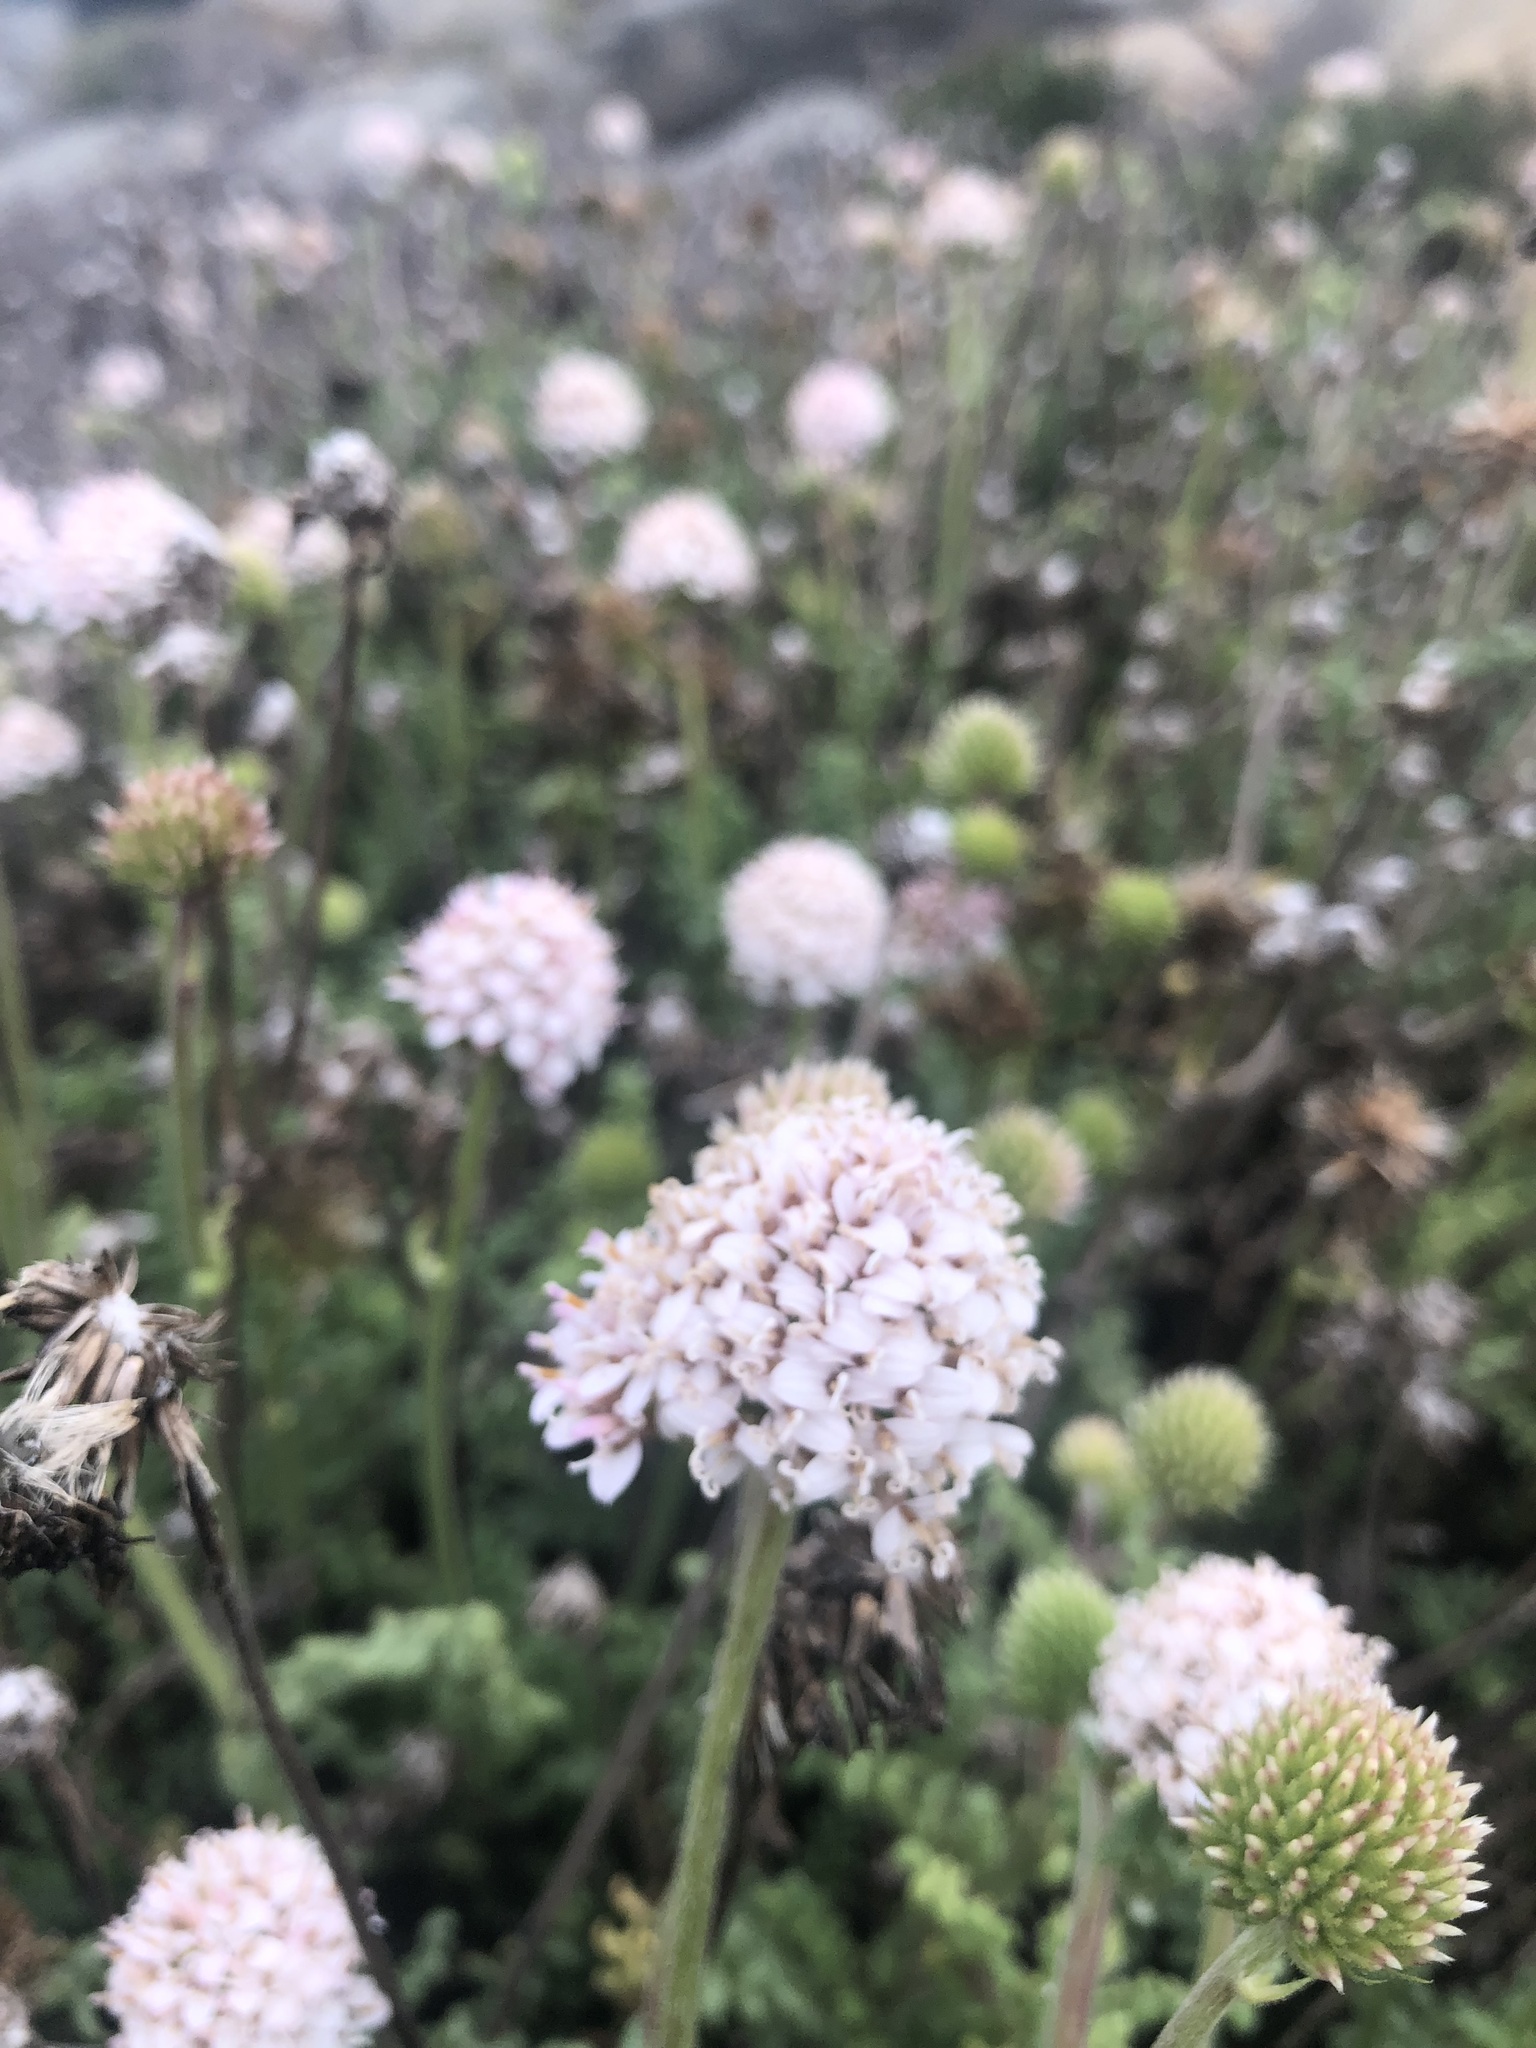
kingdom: Plantae
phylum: Tracheophyta
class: Magnoliopsida
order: Asterales
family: Asteraceae
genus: Polyachyrus
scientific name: Polyachyrus poeppigii
